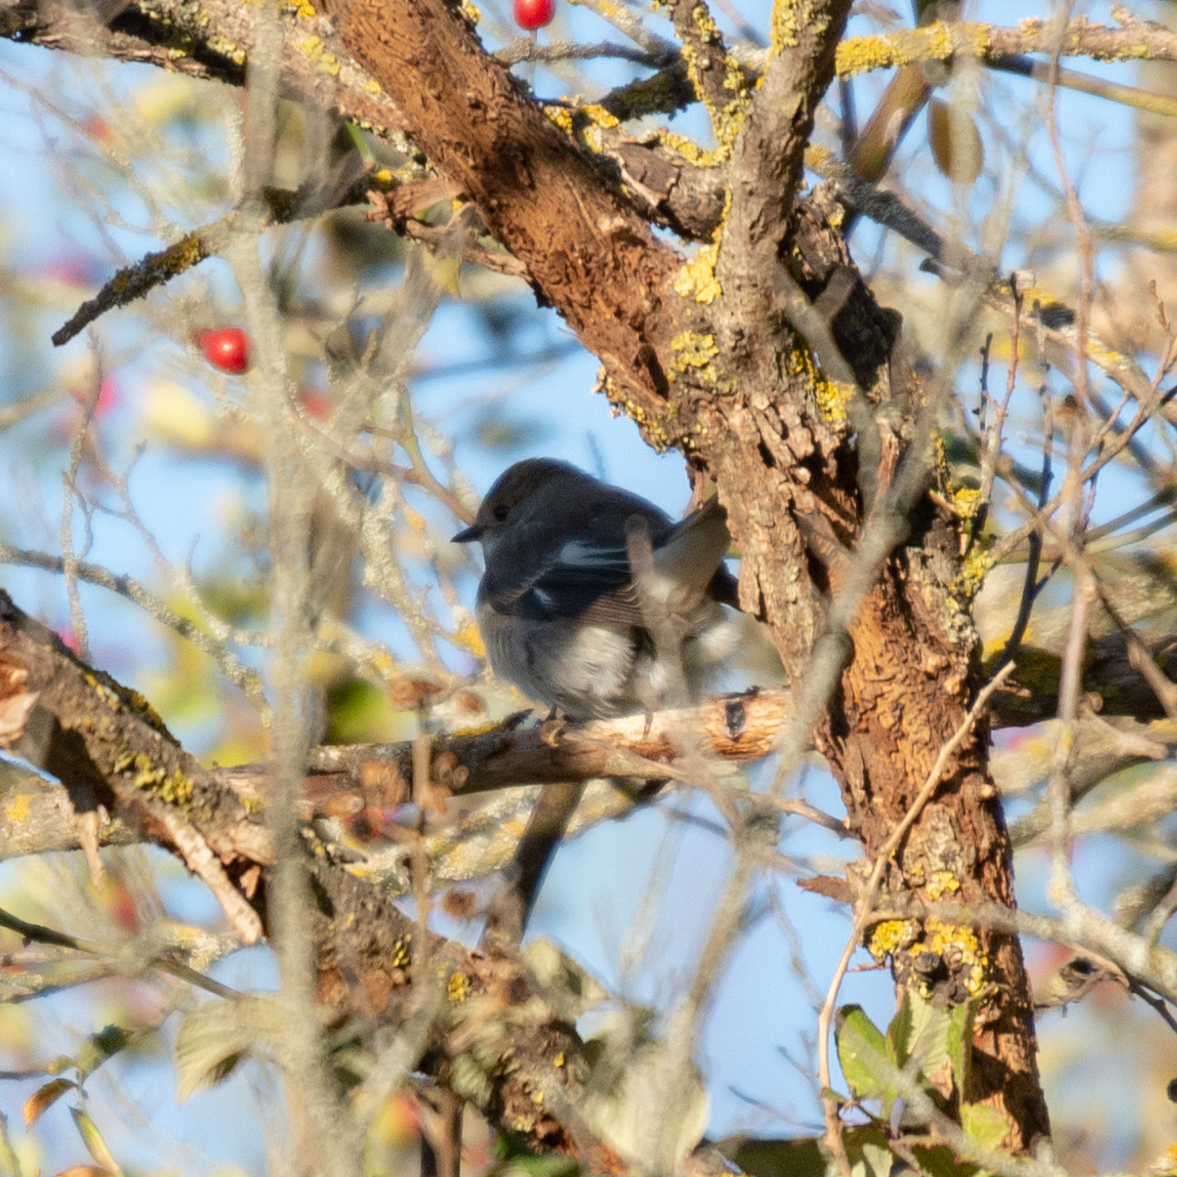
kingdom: Animalia
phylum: Chordata
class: Aves
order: Passeriformes
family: Muscicapidae
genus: Ficedula
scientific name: Ficedula hypoleuca
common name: European pied flycatcher
